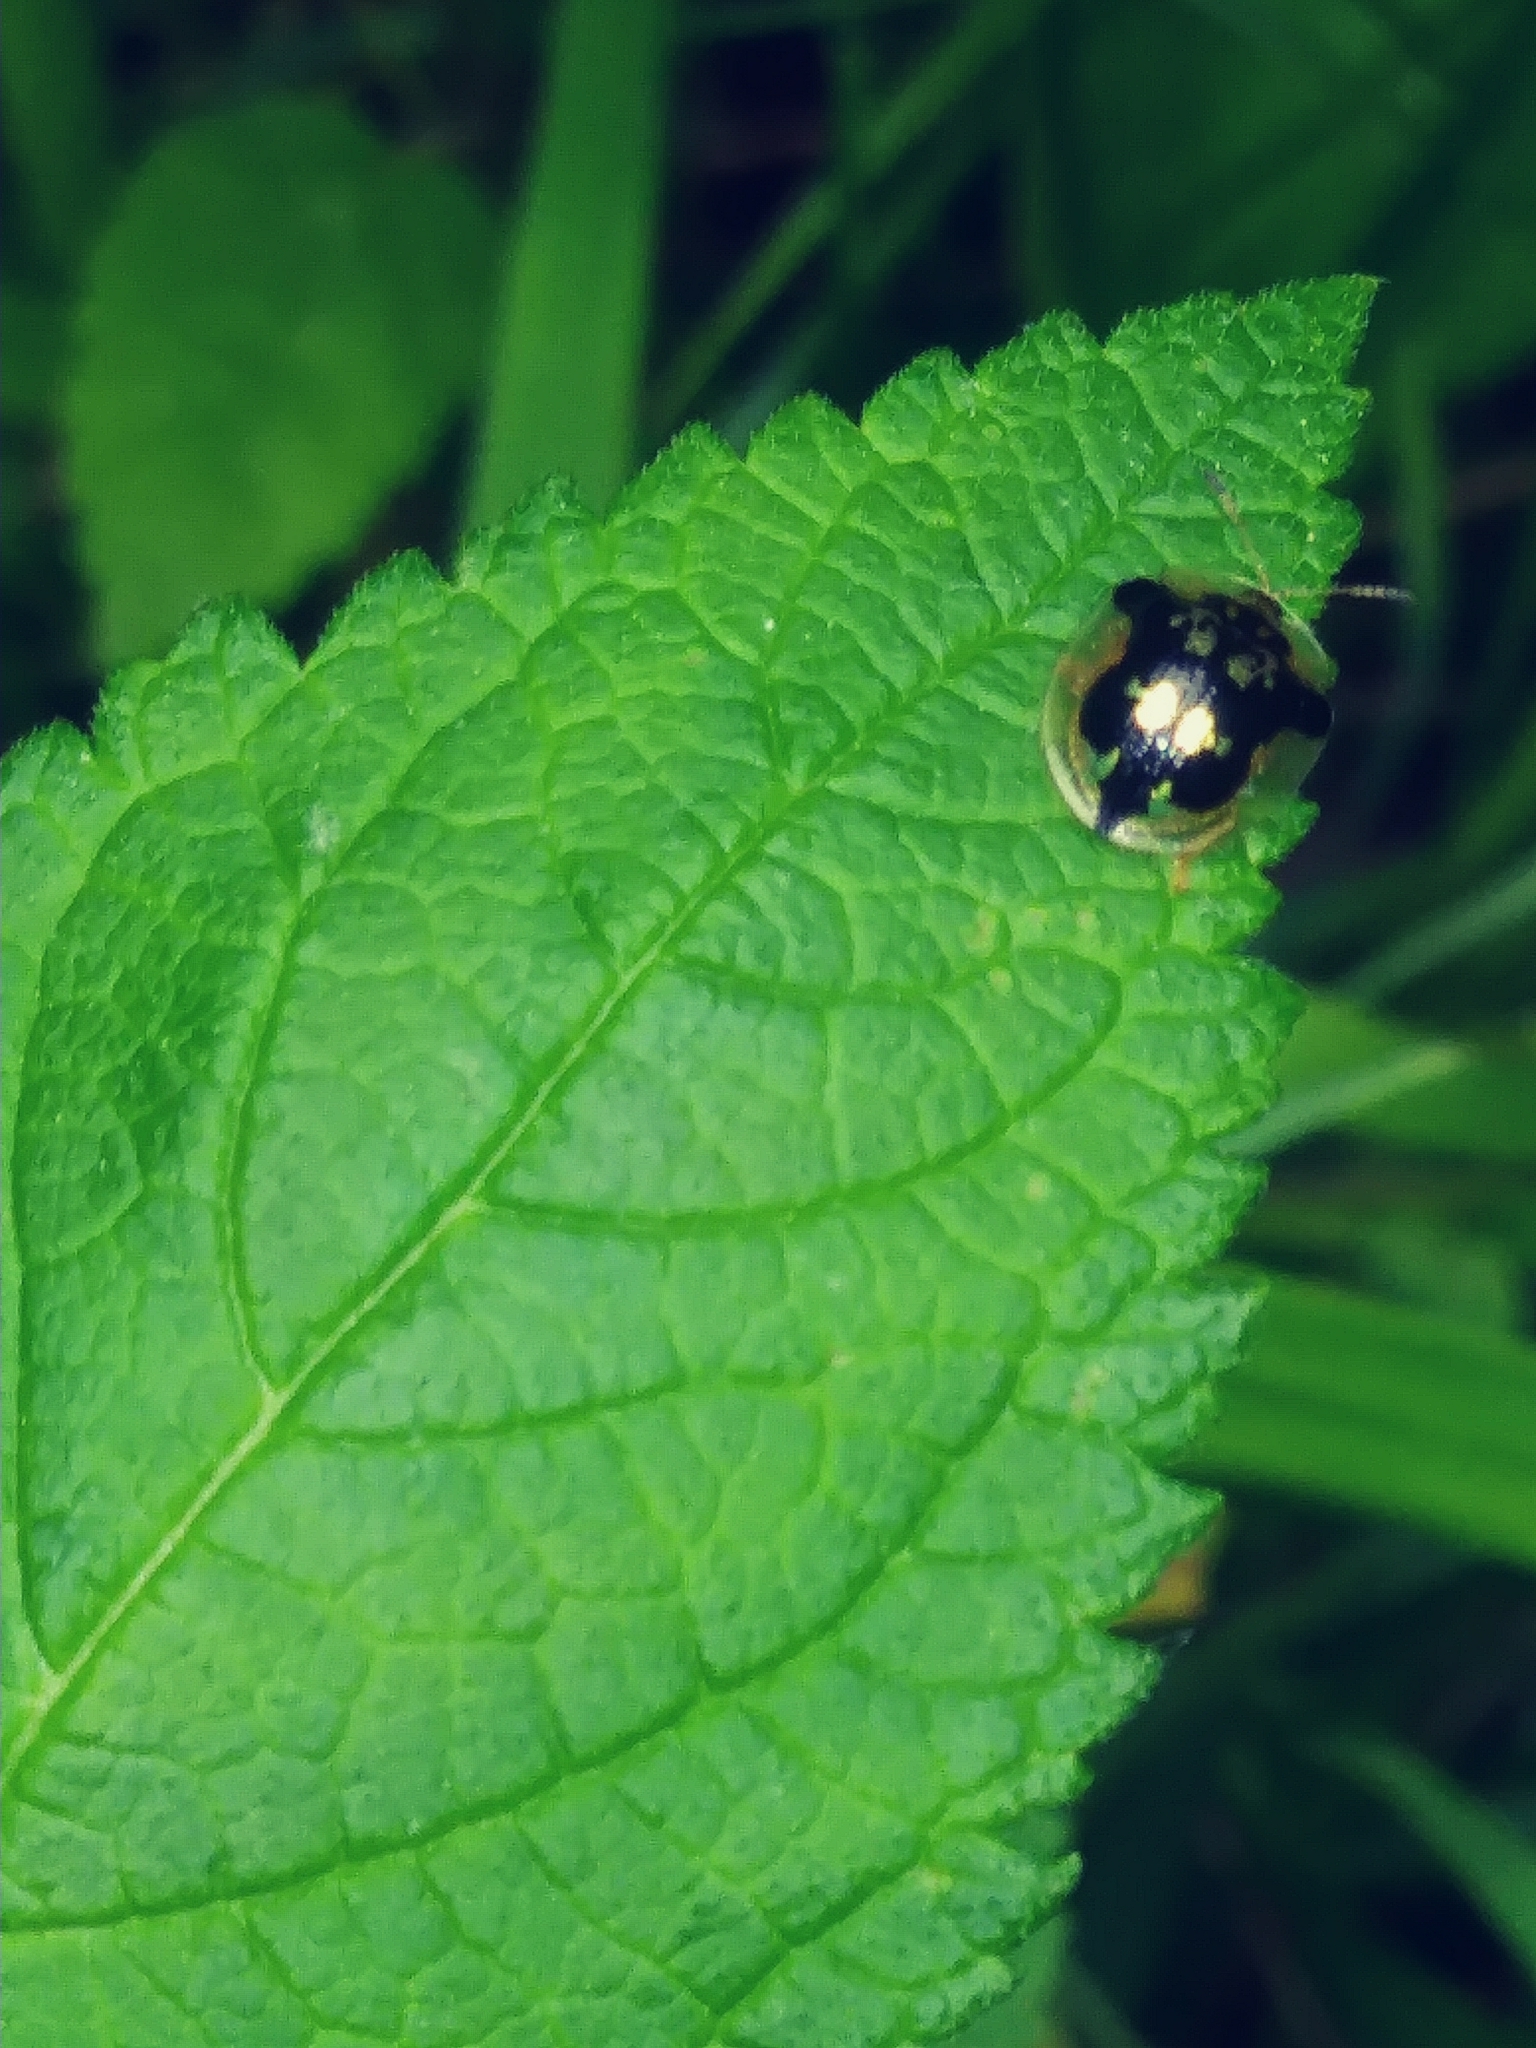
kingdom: Animalia
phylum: Arthropoda
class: Insecta
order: Lepidoptera
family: Geometridae
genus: Haematopis
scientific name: Haematopis grataria
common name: Chickweed geometer
